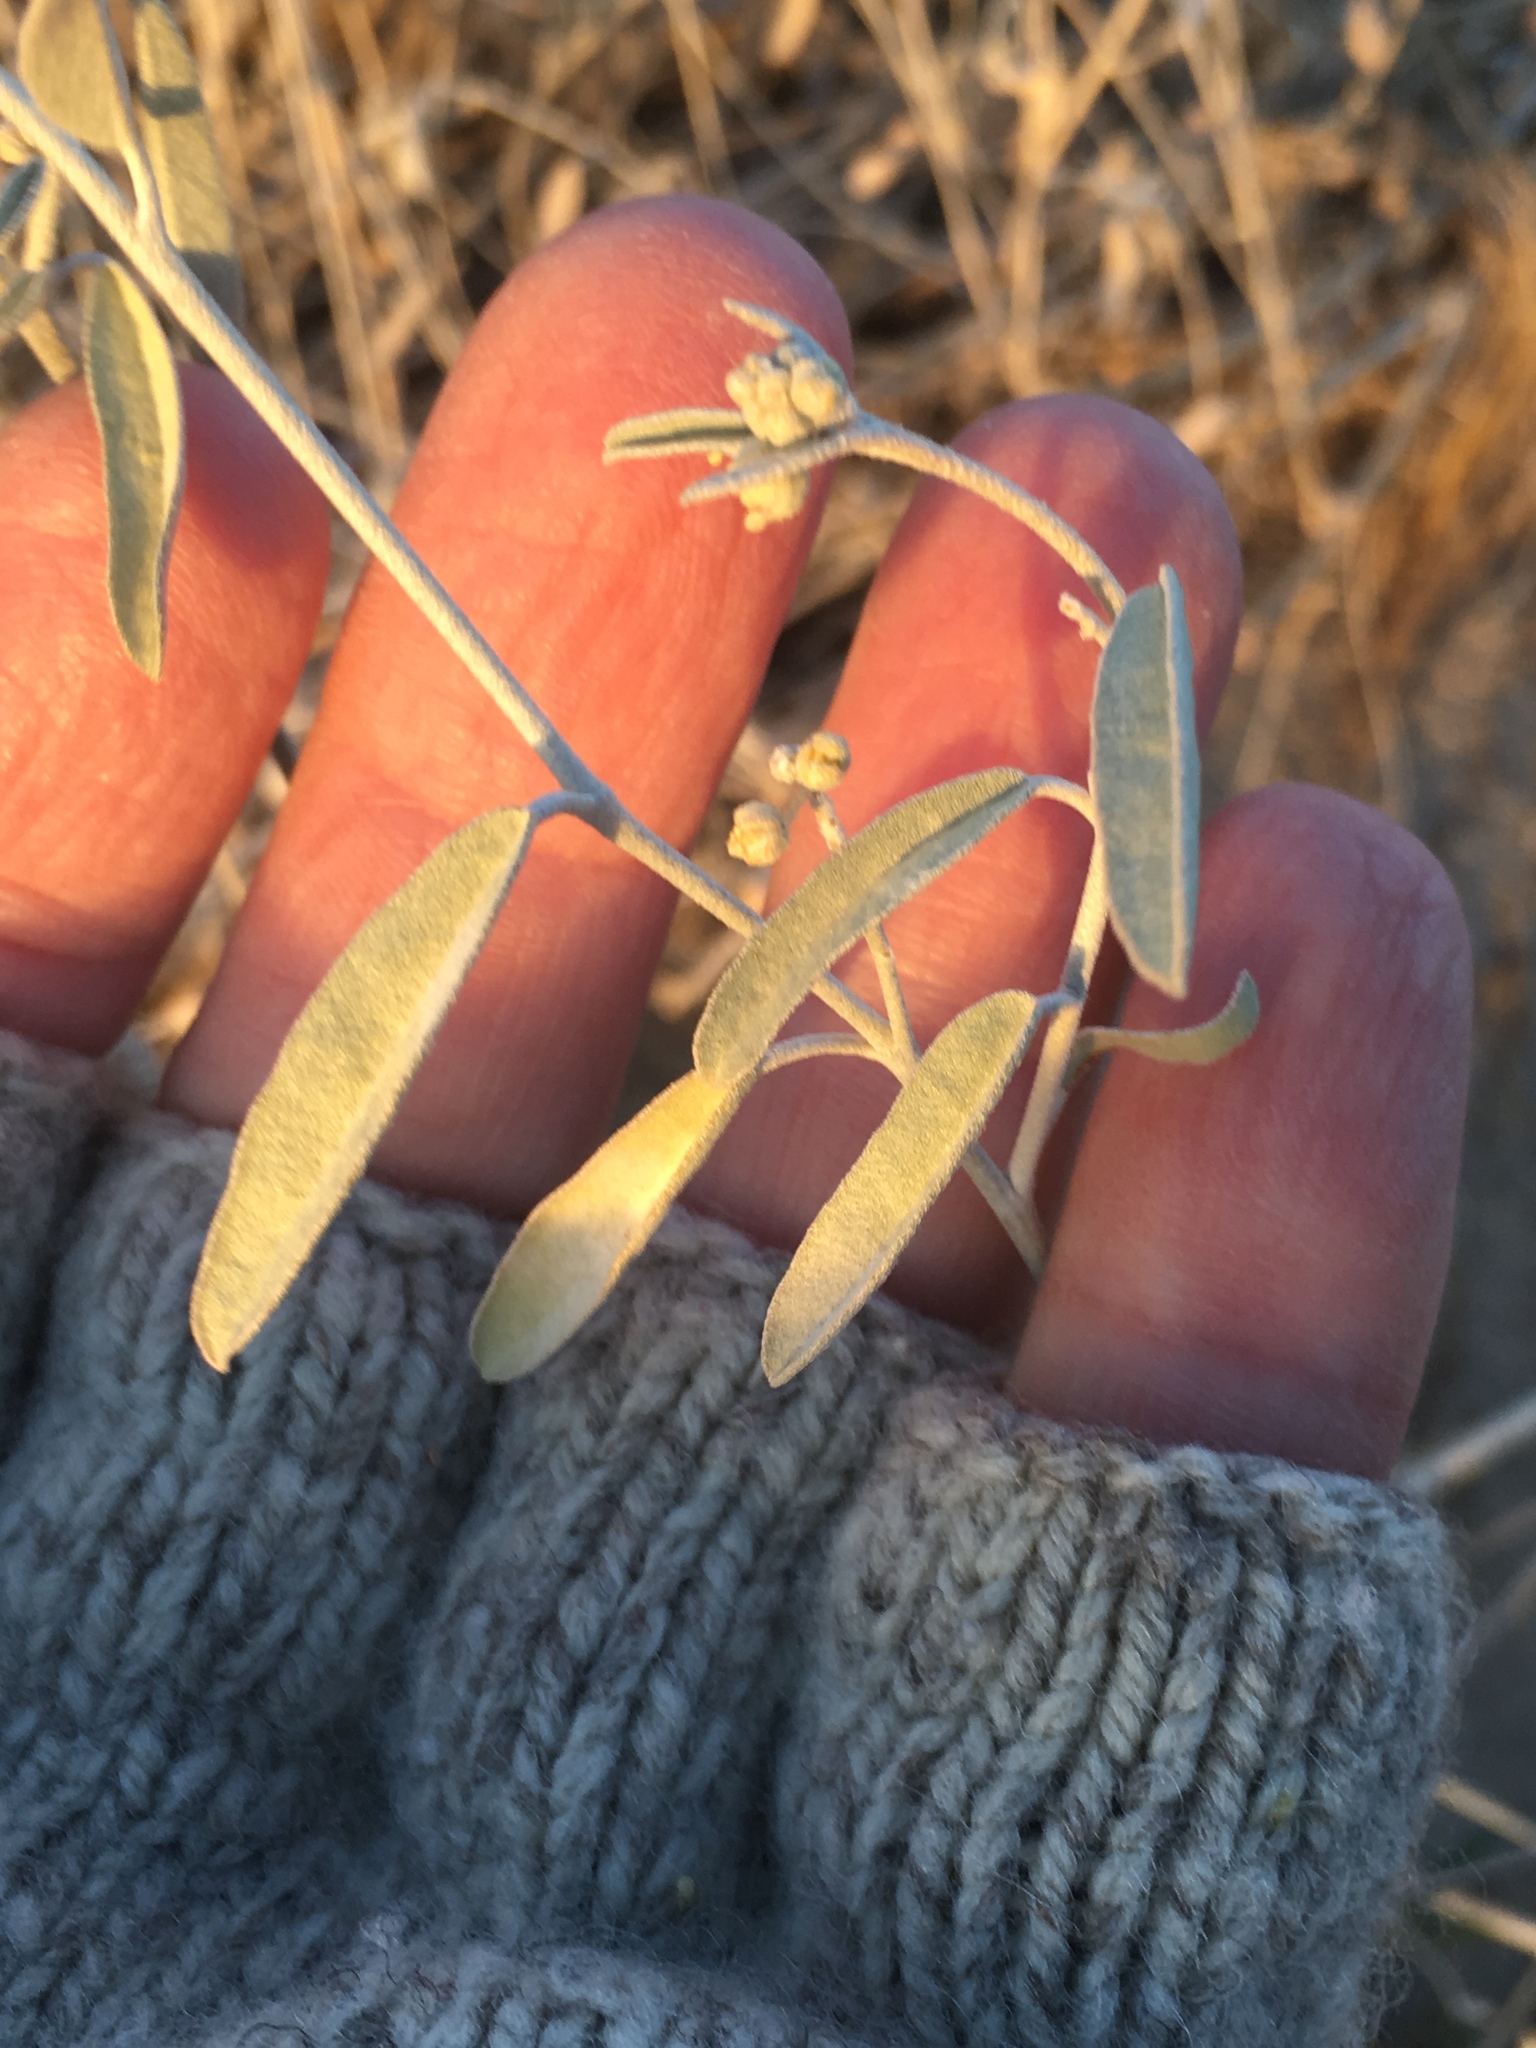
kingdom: Plantae
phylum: Tracheophyta
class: Magnoliopsida
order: Malpighiales
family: Euphorbiaceae
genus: Croton
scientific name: Croton californicus
